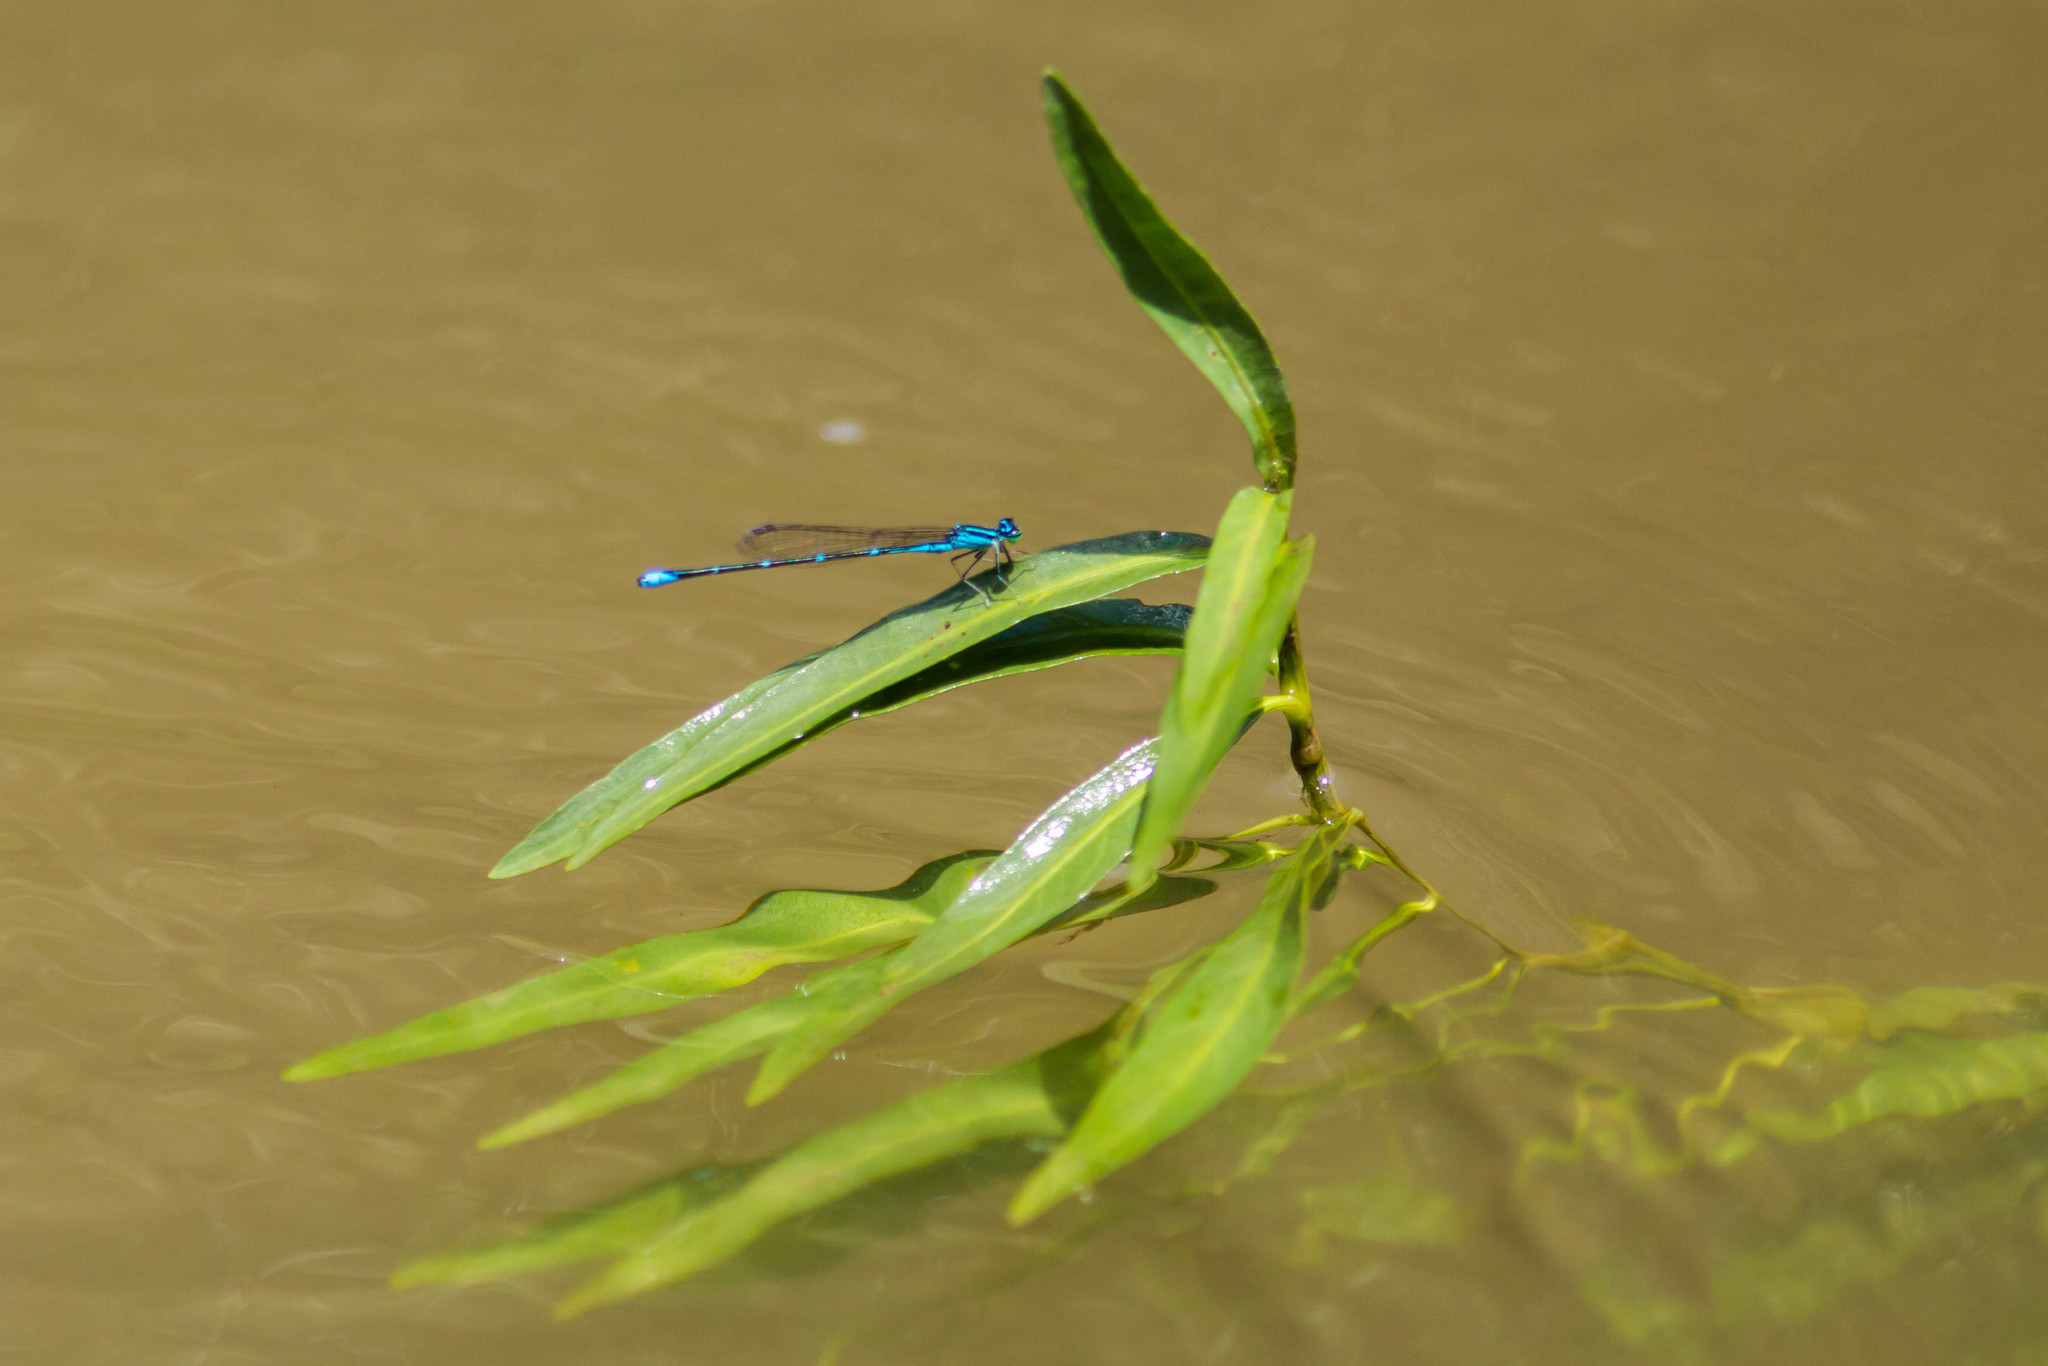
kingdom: Animalia
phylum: Arthropoda
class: Insecta
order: Odonata
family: Coenagrionidae
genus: Enallagma
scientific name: Enallagma exsulans
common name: Stream bluet
